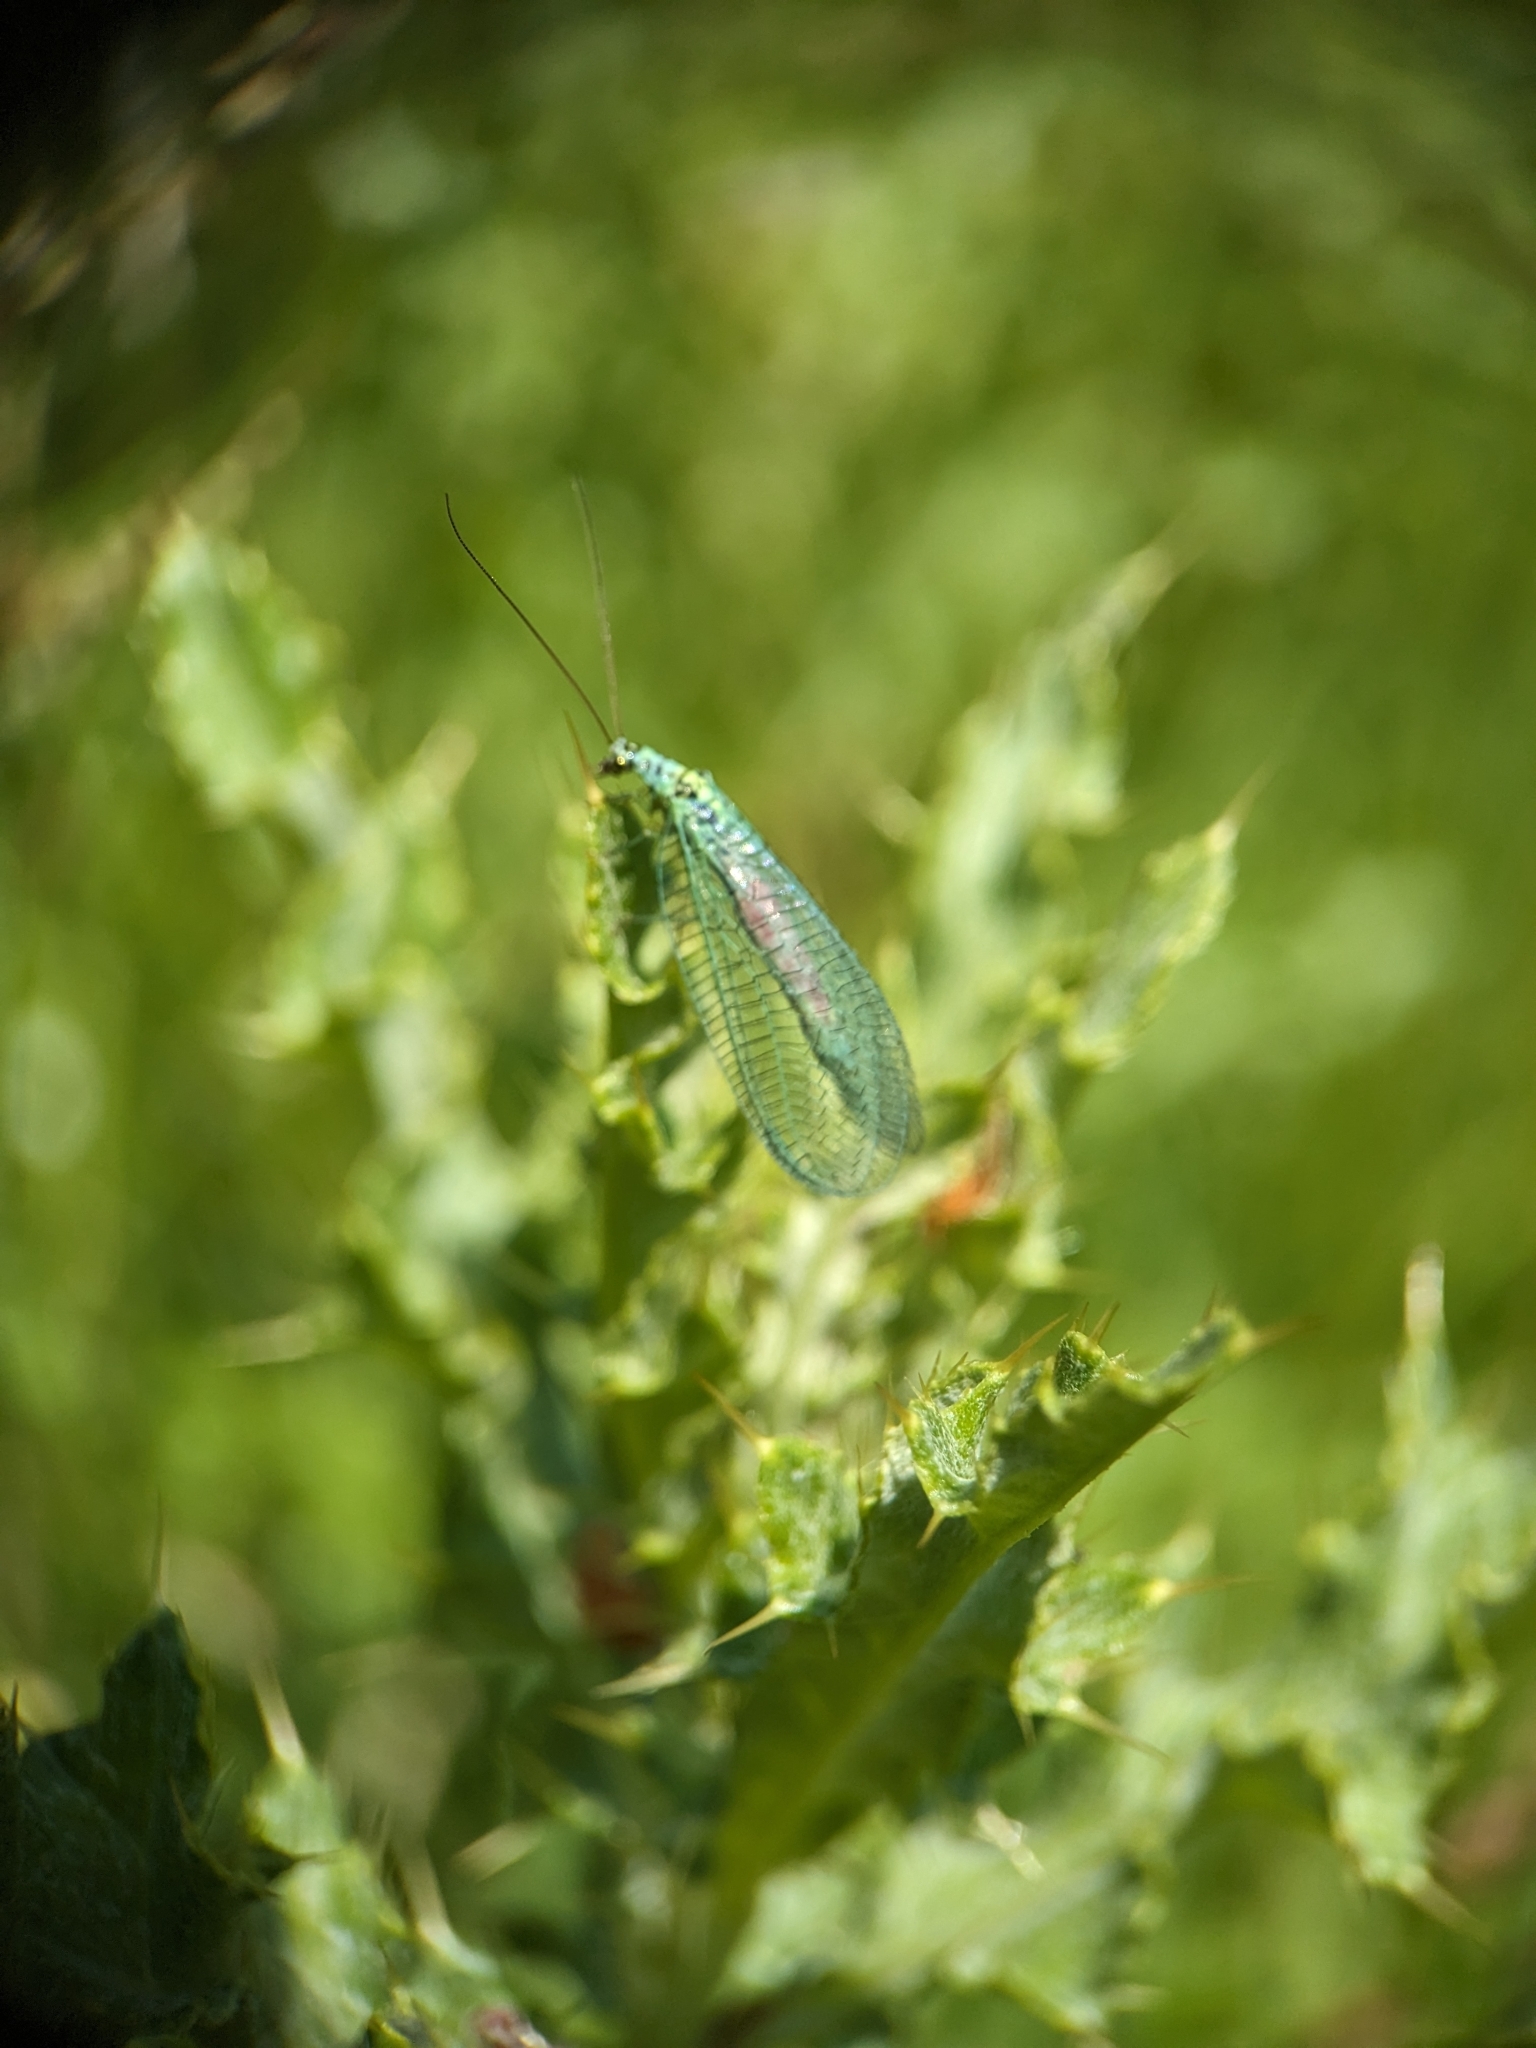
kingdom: Animalia
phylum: Arthropoda
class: Insecta
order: Neuroptera
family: Chrysopidae
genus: Chrysopa
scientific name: Chrysopa perla
